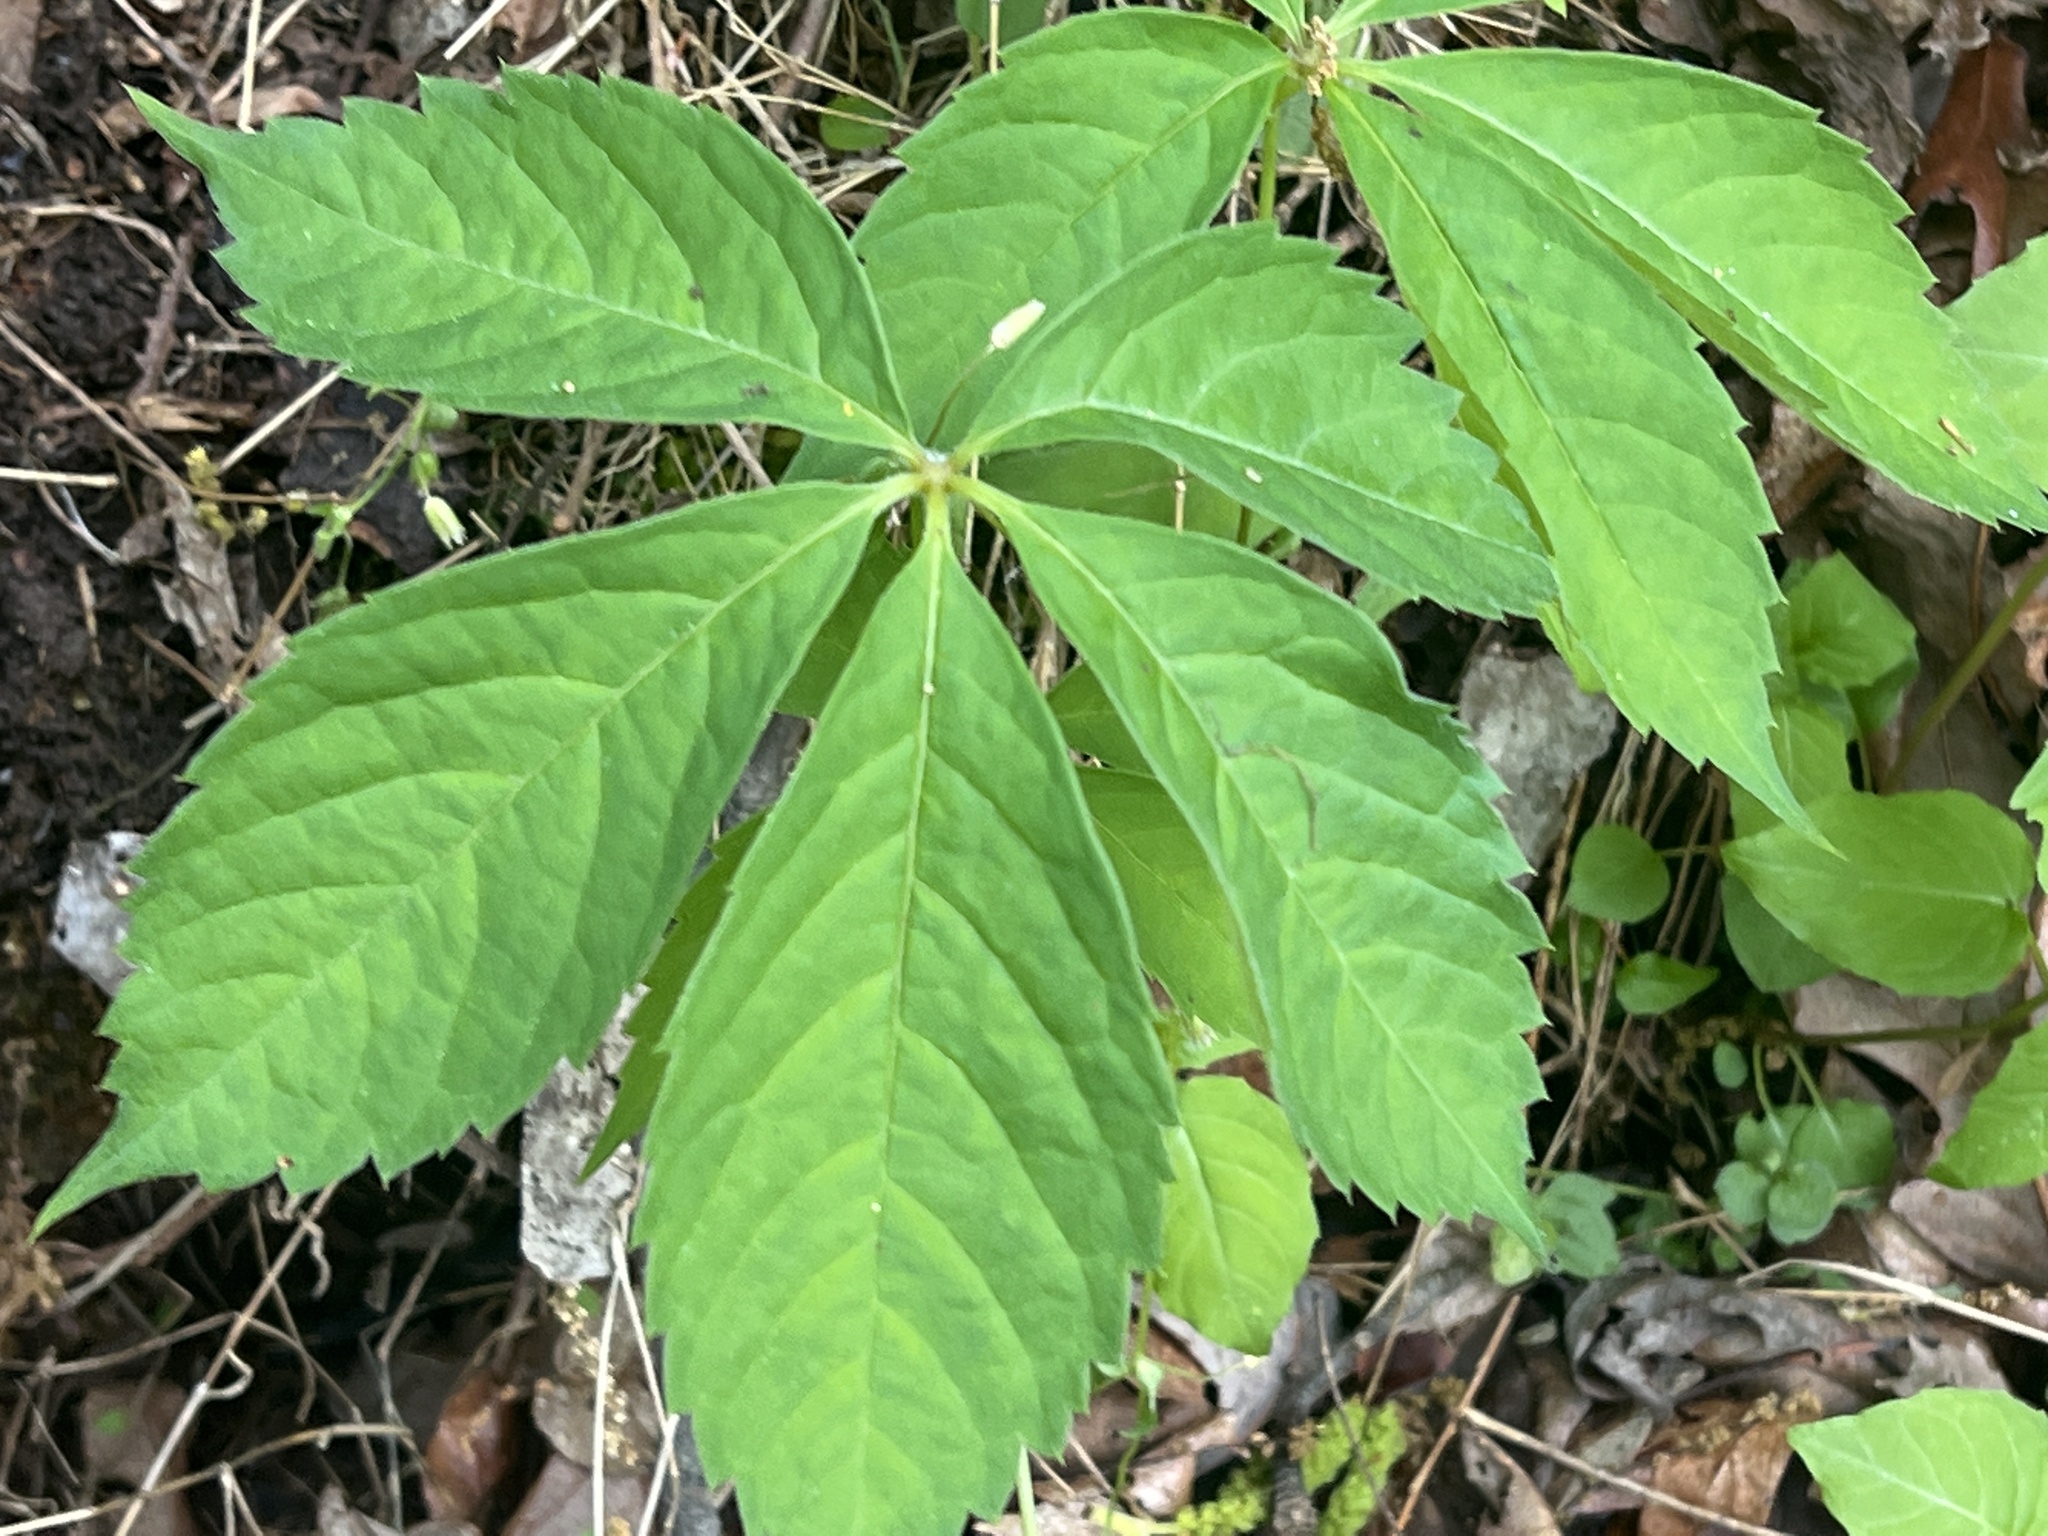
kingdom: Plantae
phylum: Tracheophyta
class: Magnoliopsida
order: Vitales
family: Vitaceae
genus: Parthenocissus
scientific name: Parthenocissus quinquefolia
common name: Virginia-creeper
